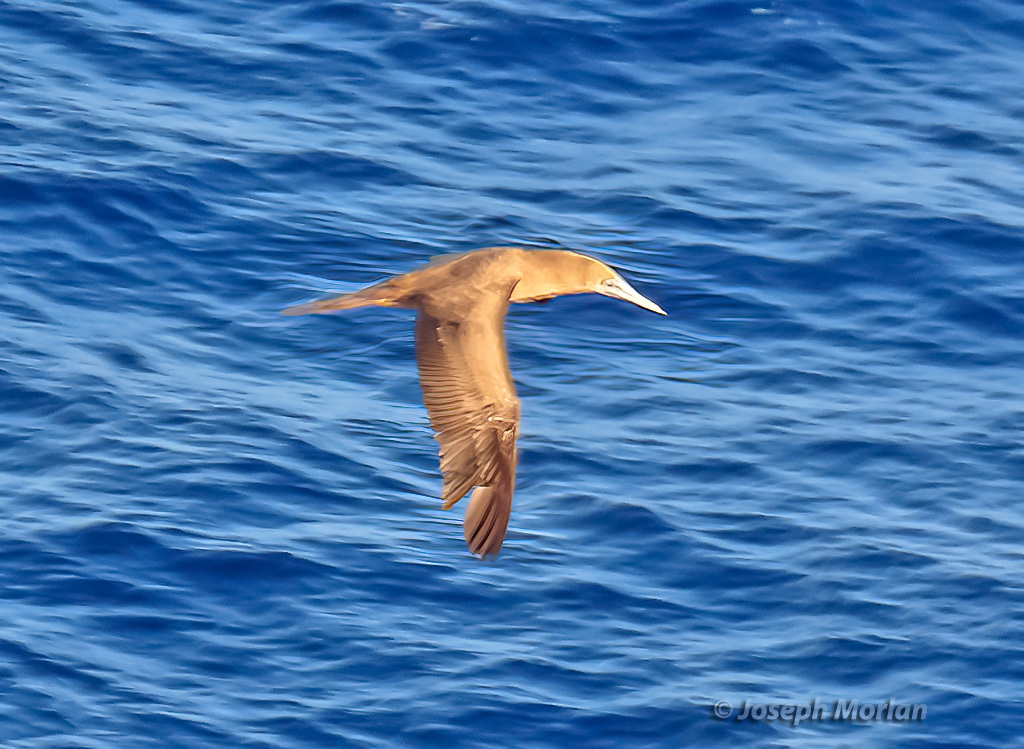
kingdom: Animalia
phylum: Chordata
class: Aves
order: Suliformes
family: Sulidae
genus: Sula
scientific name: Sula leucogaster
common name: Brown booby
